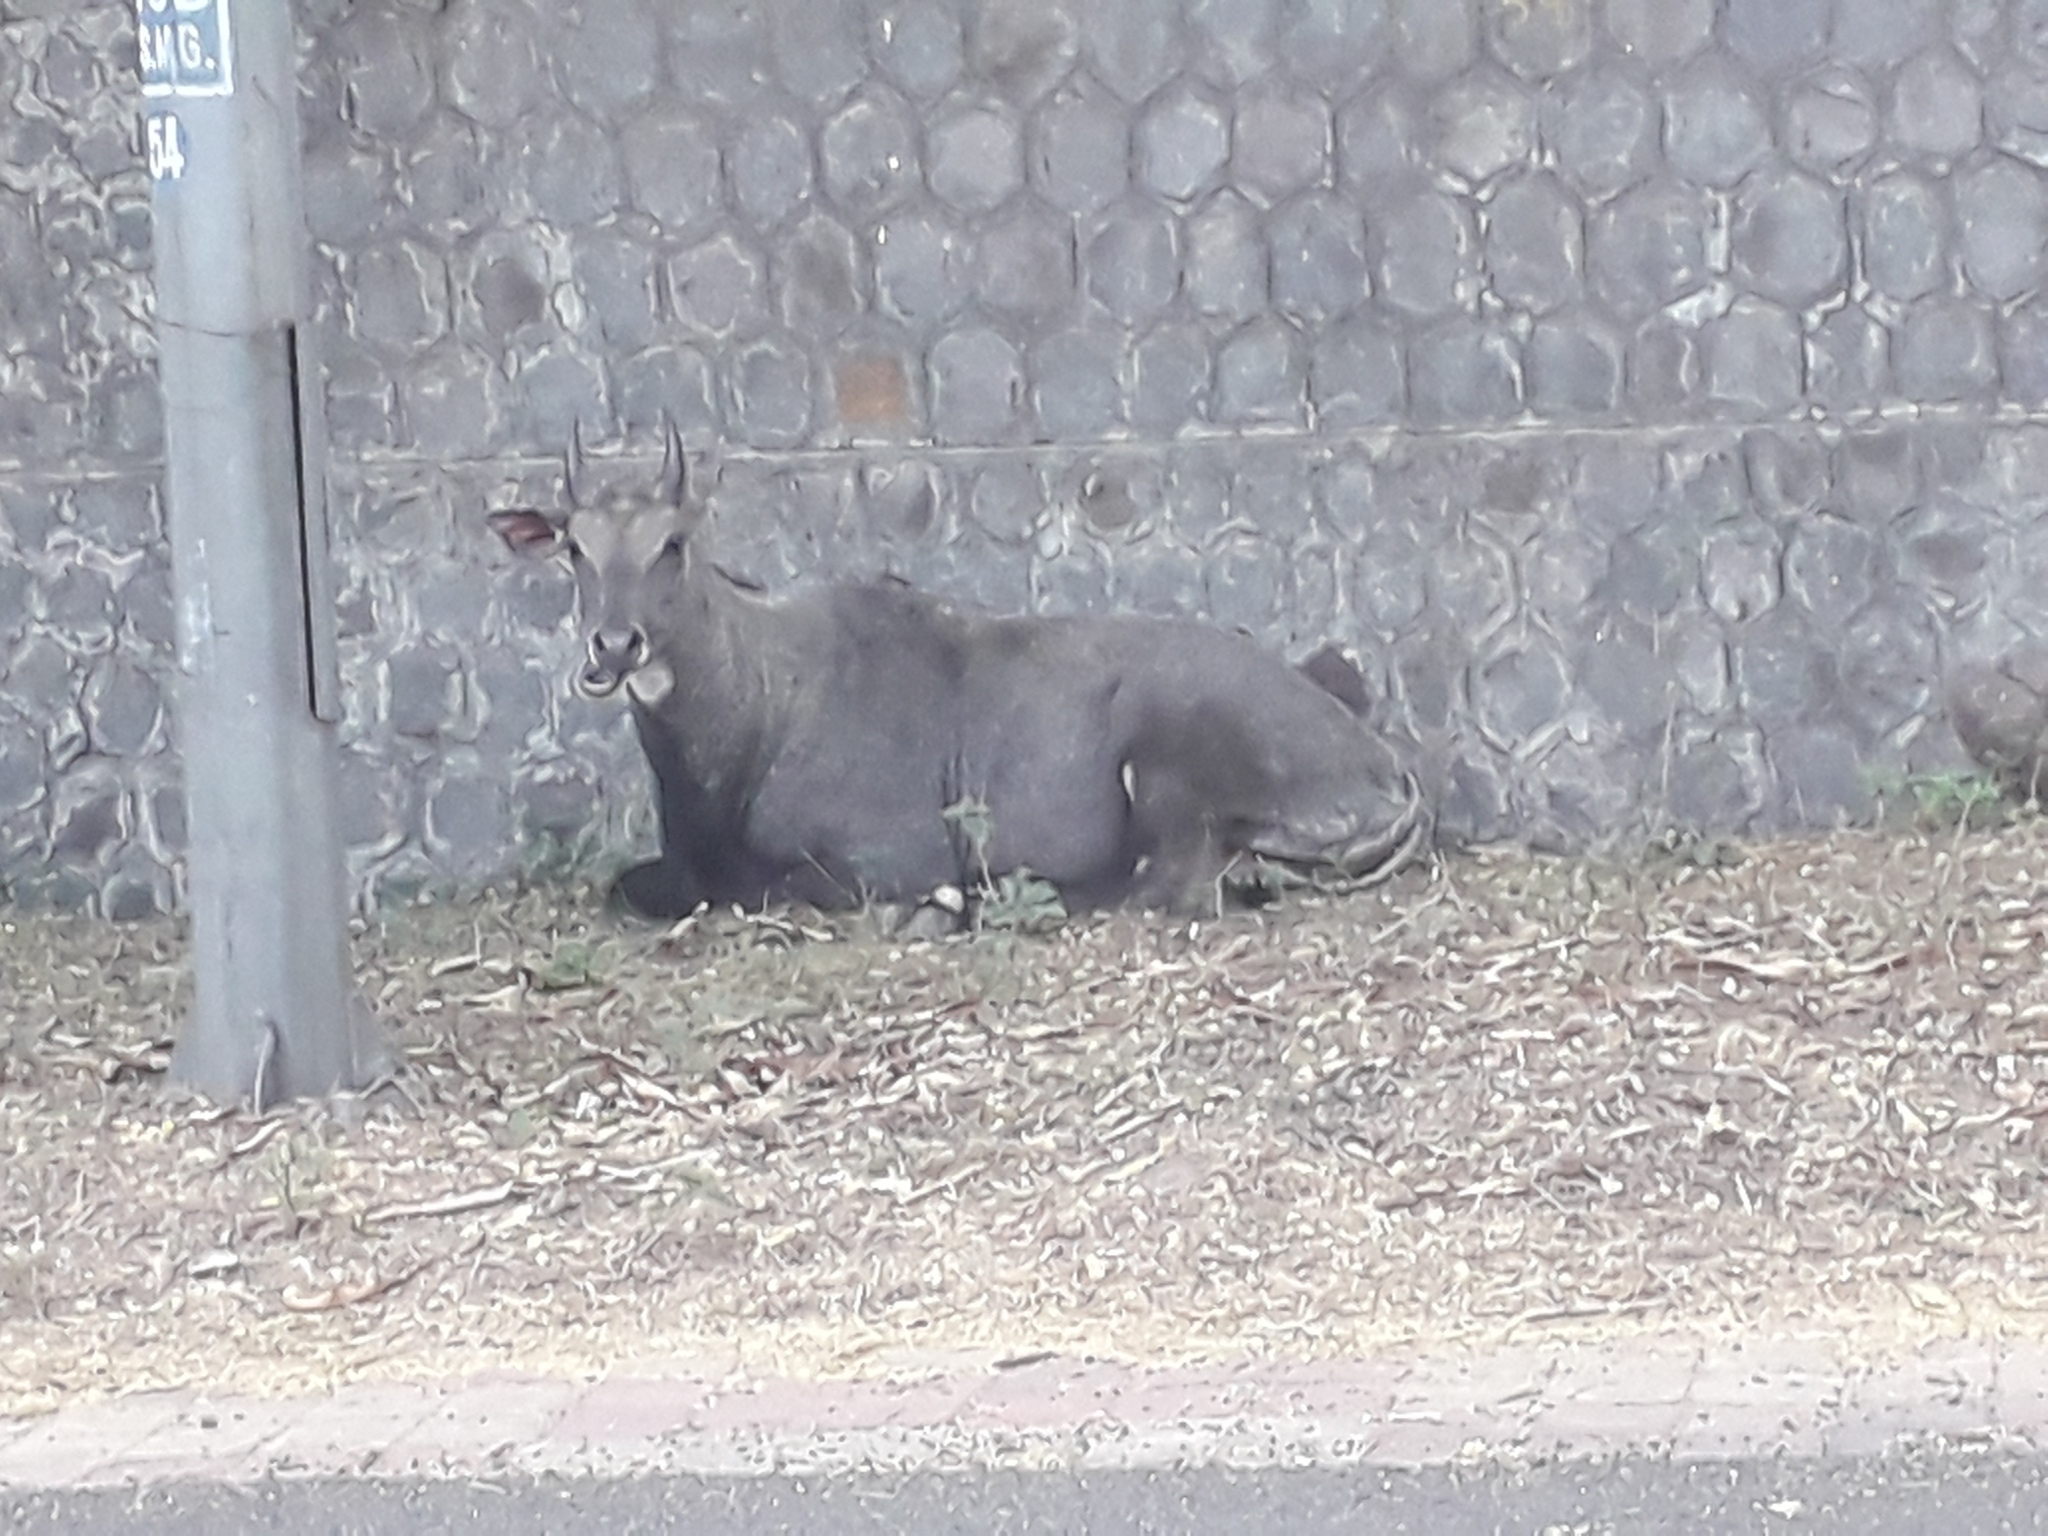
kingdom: Animalia
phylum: Chordata
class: Mammalia
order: Artiodactyla
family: Bovidae
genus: Boselaphus
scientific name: Boselaphus tragocamelus
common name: Nilgai
